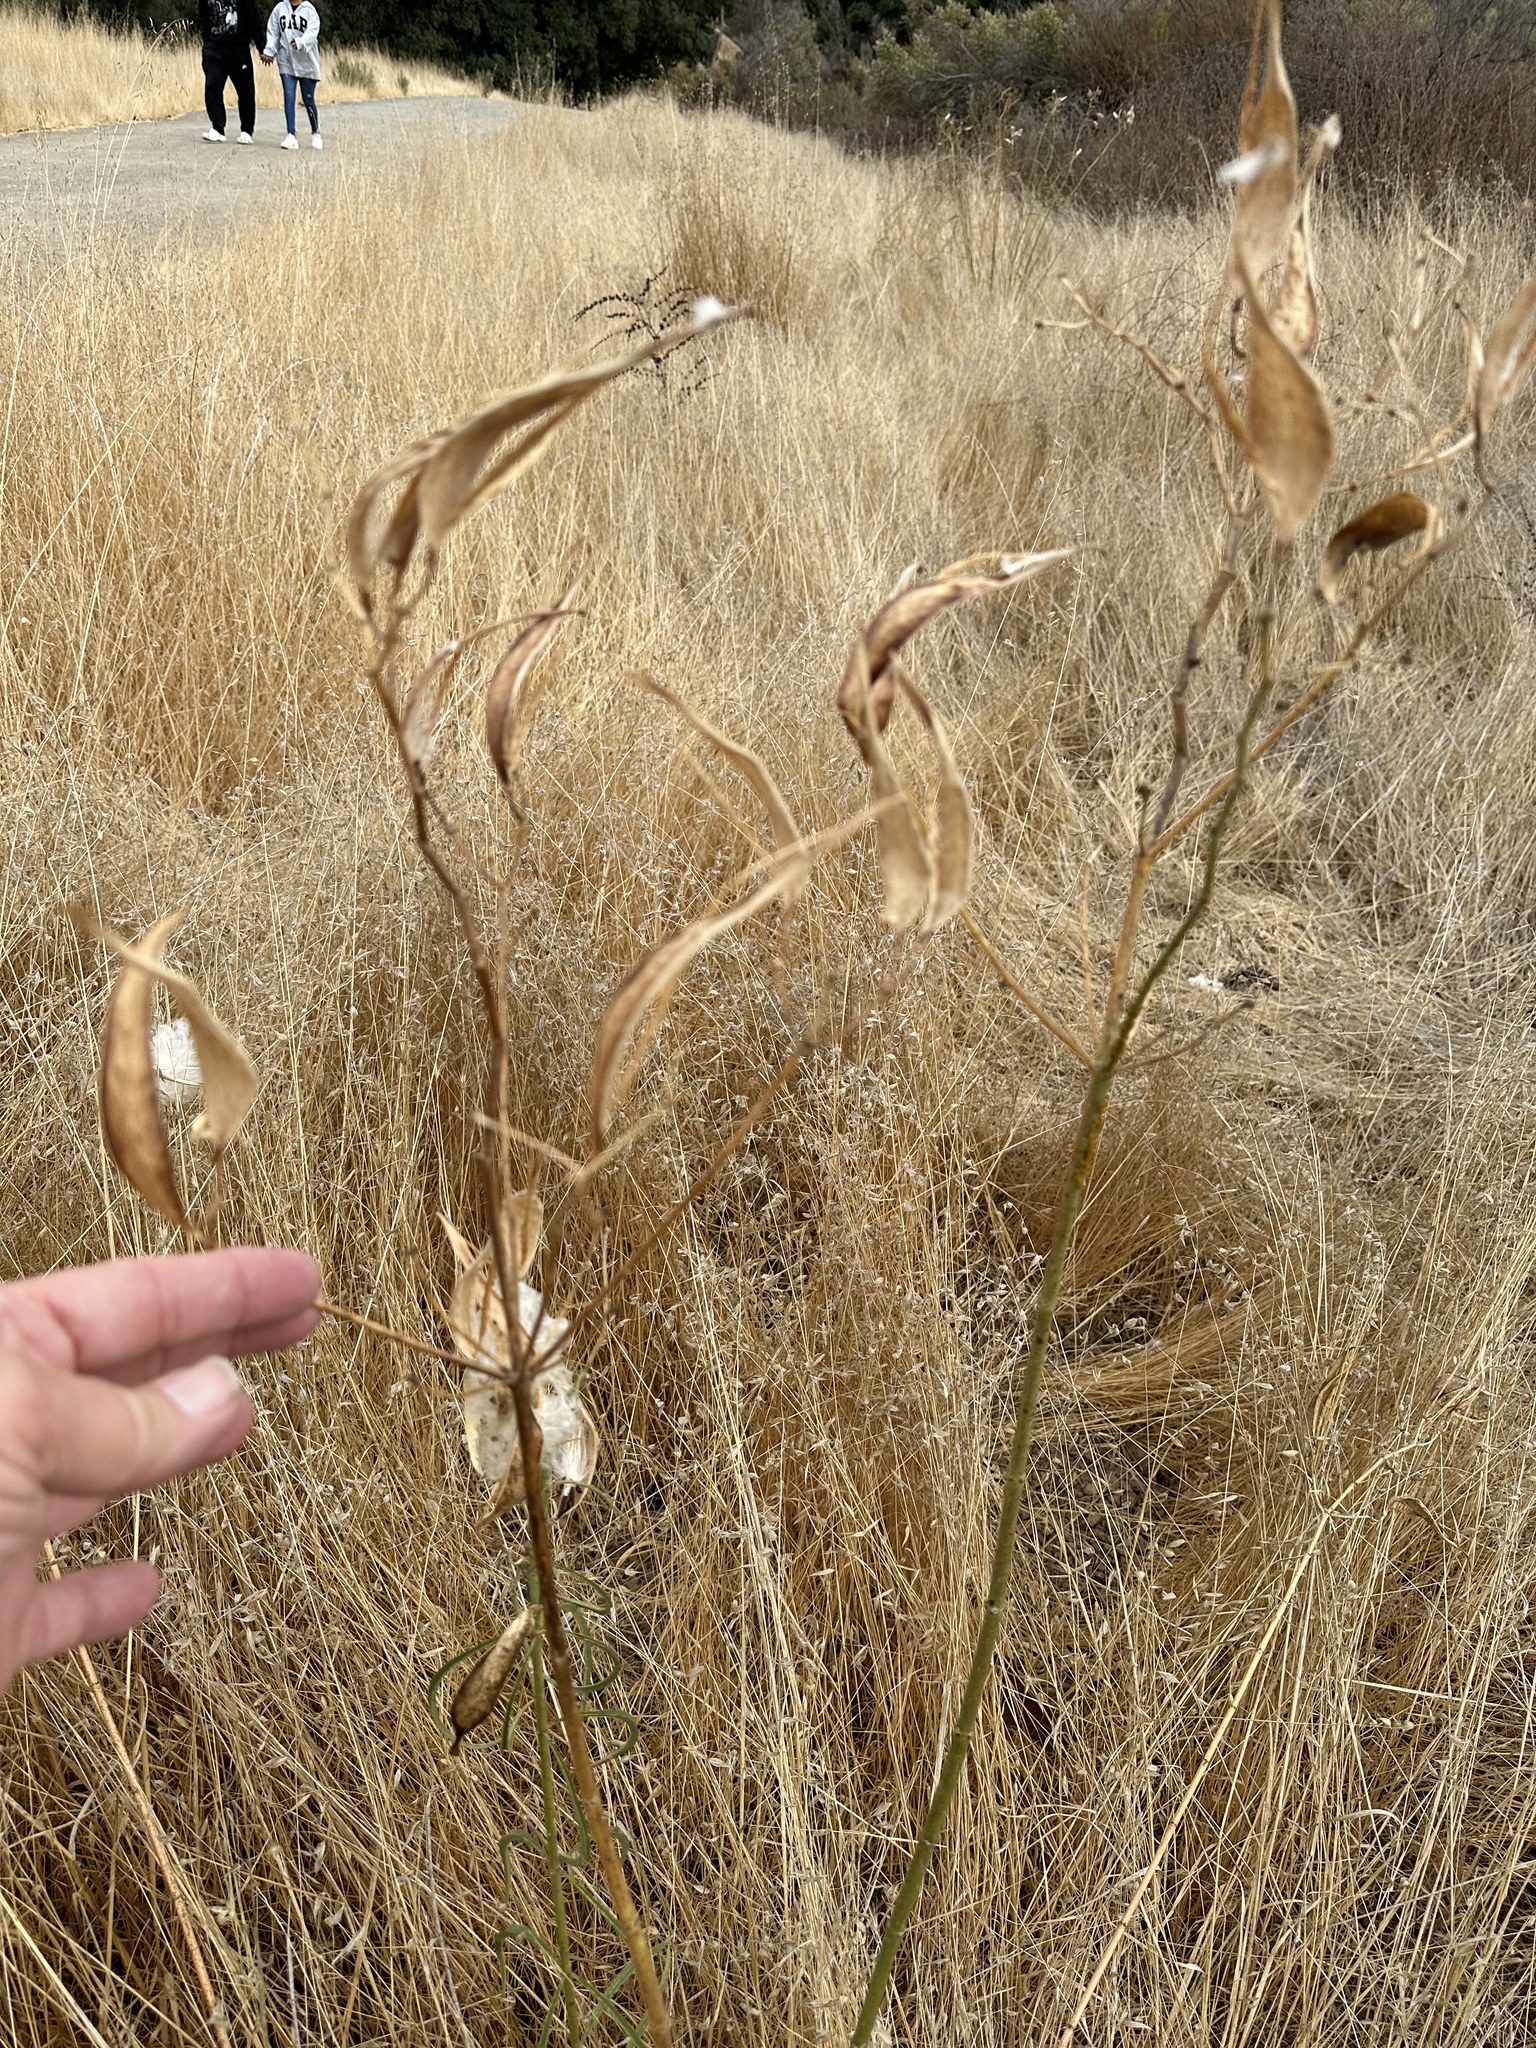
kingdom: Plantae
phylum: Tracheophyta
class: Magnoliopsida
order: Gentianales
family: Apocynaceae
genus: Asclepias
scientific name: Asclepias fascicularis
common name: Mexican milkweed
